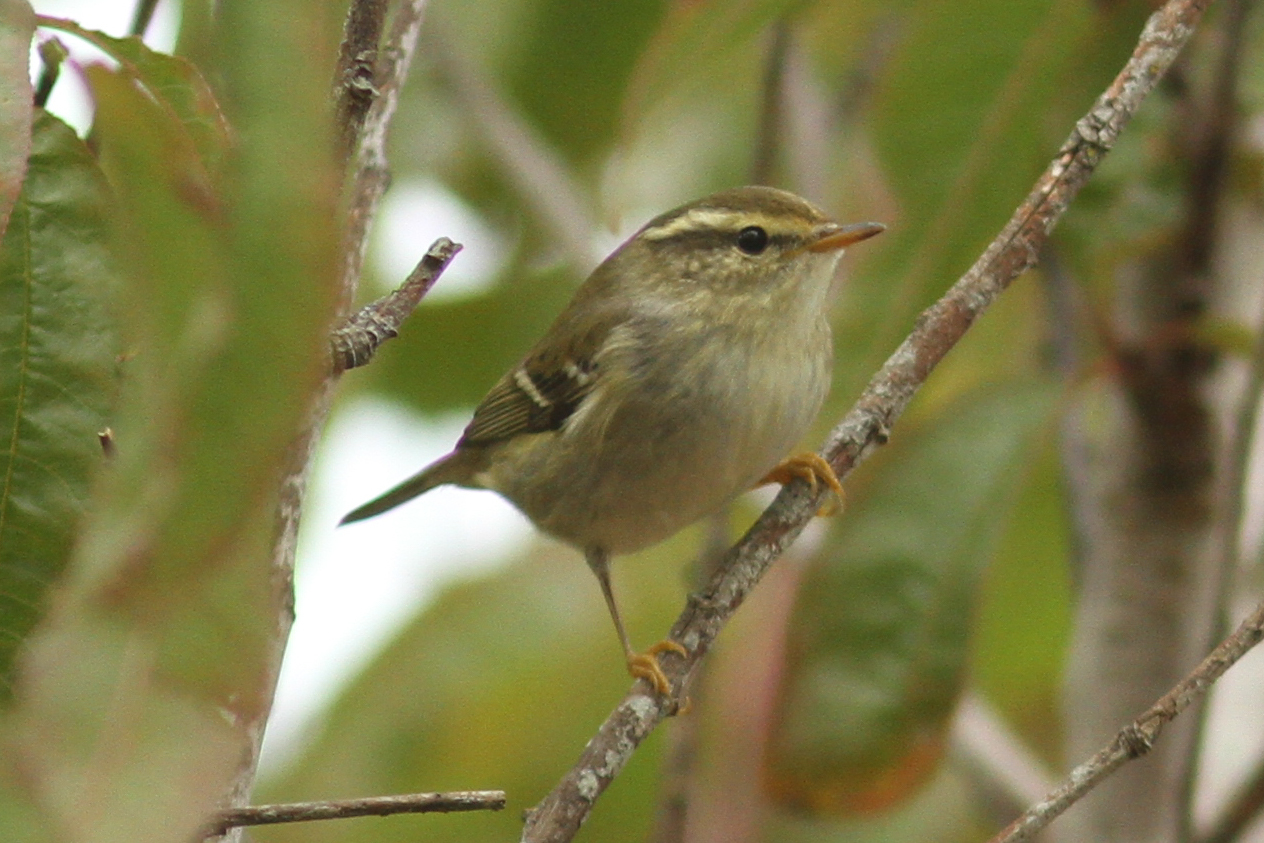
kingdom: Animalia
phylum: Chordata
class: Aves
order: Passeriformes
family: Phylloscopidae
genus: Phylloscopus
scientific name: Phylloscopus inornatus
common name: Yellow-browed warbler
